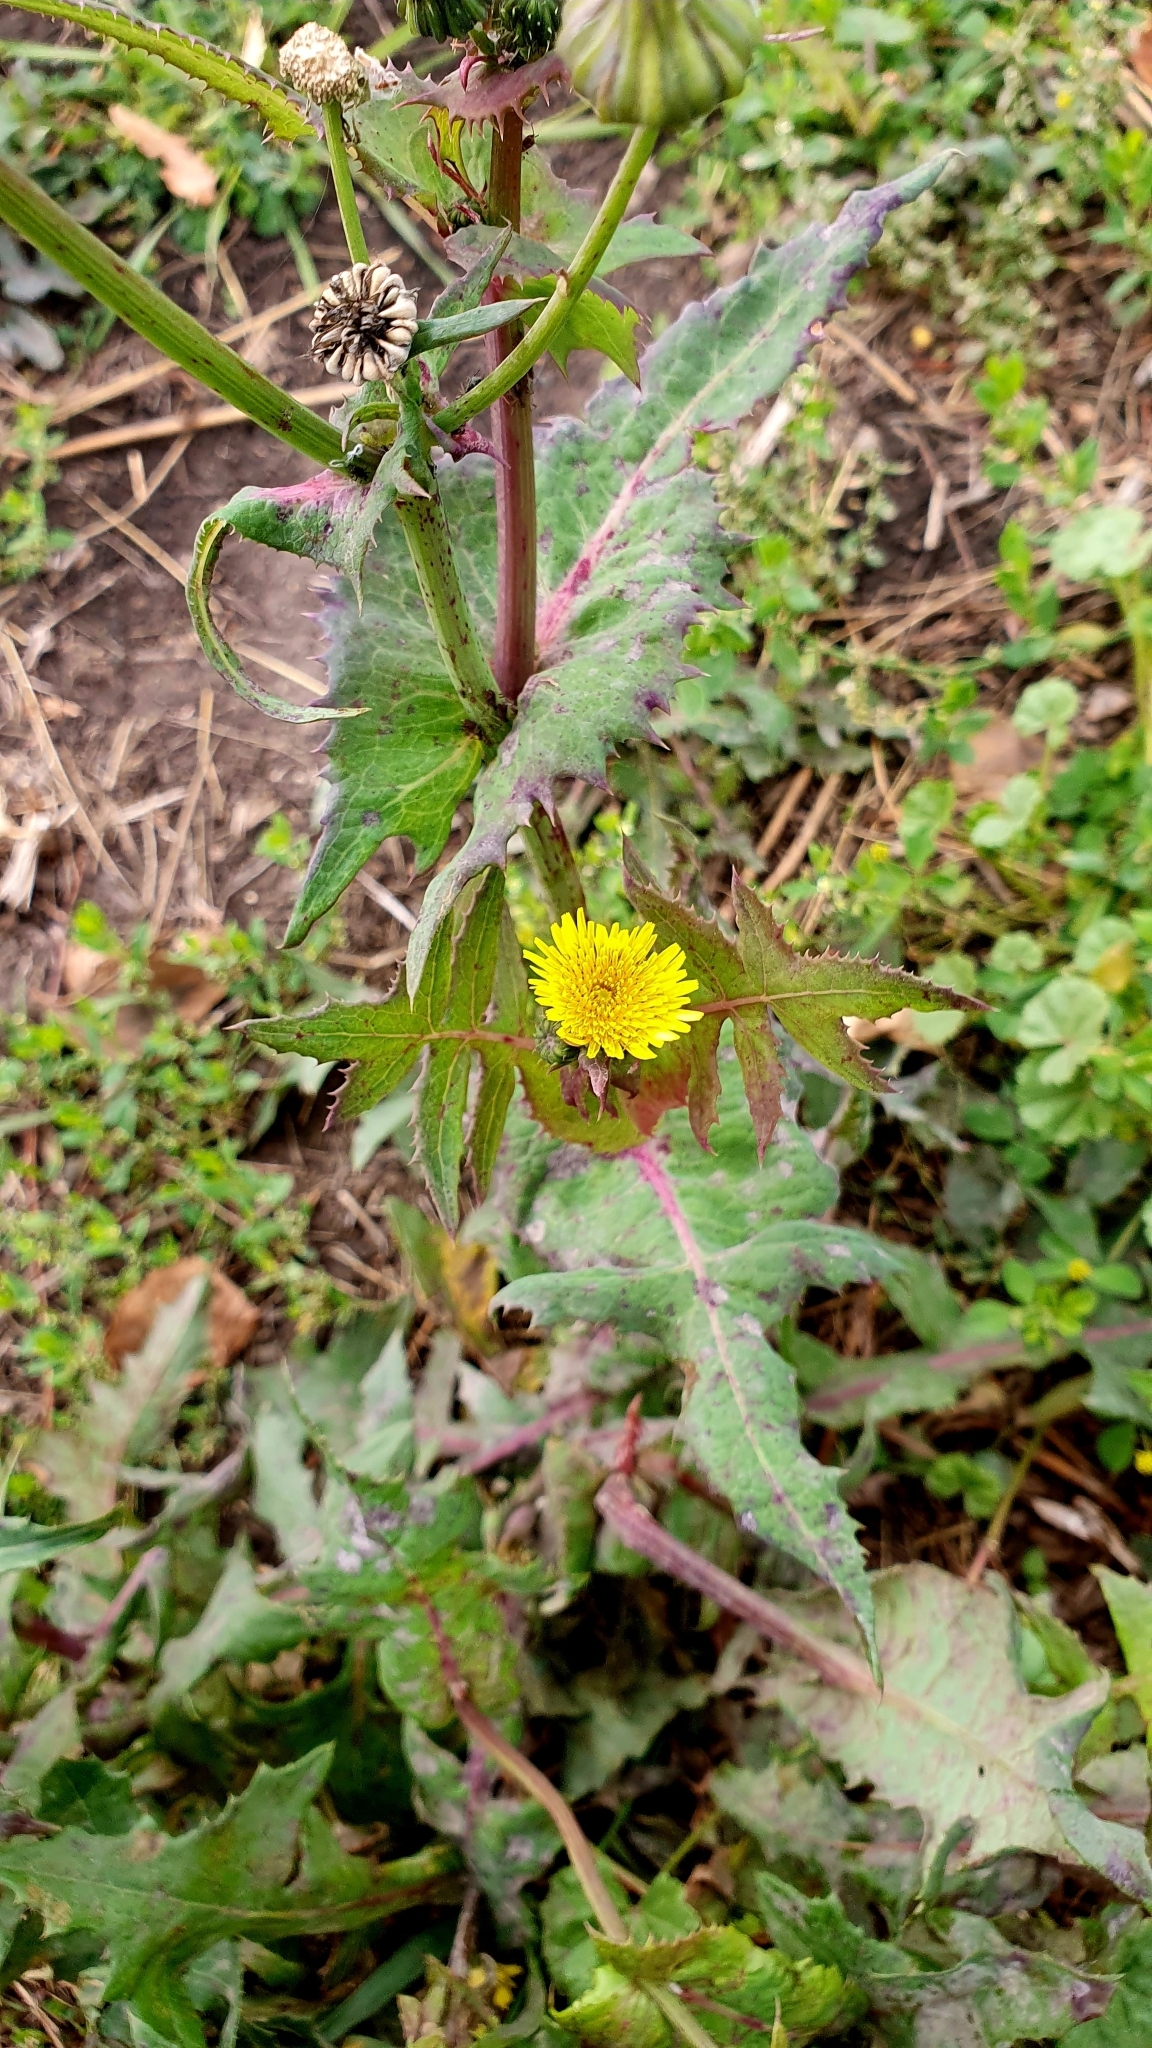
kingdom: Plantae
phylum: Tracheophyta
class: Magnoliopsida
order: Asterales
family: Asteraceae
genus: Sonchus
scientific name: Sonchus oleraceus
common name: Common sowthistle
